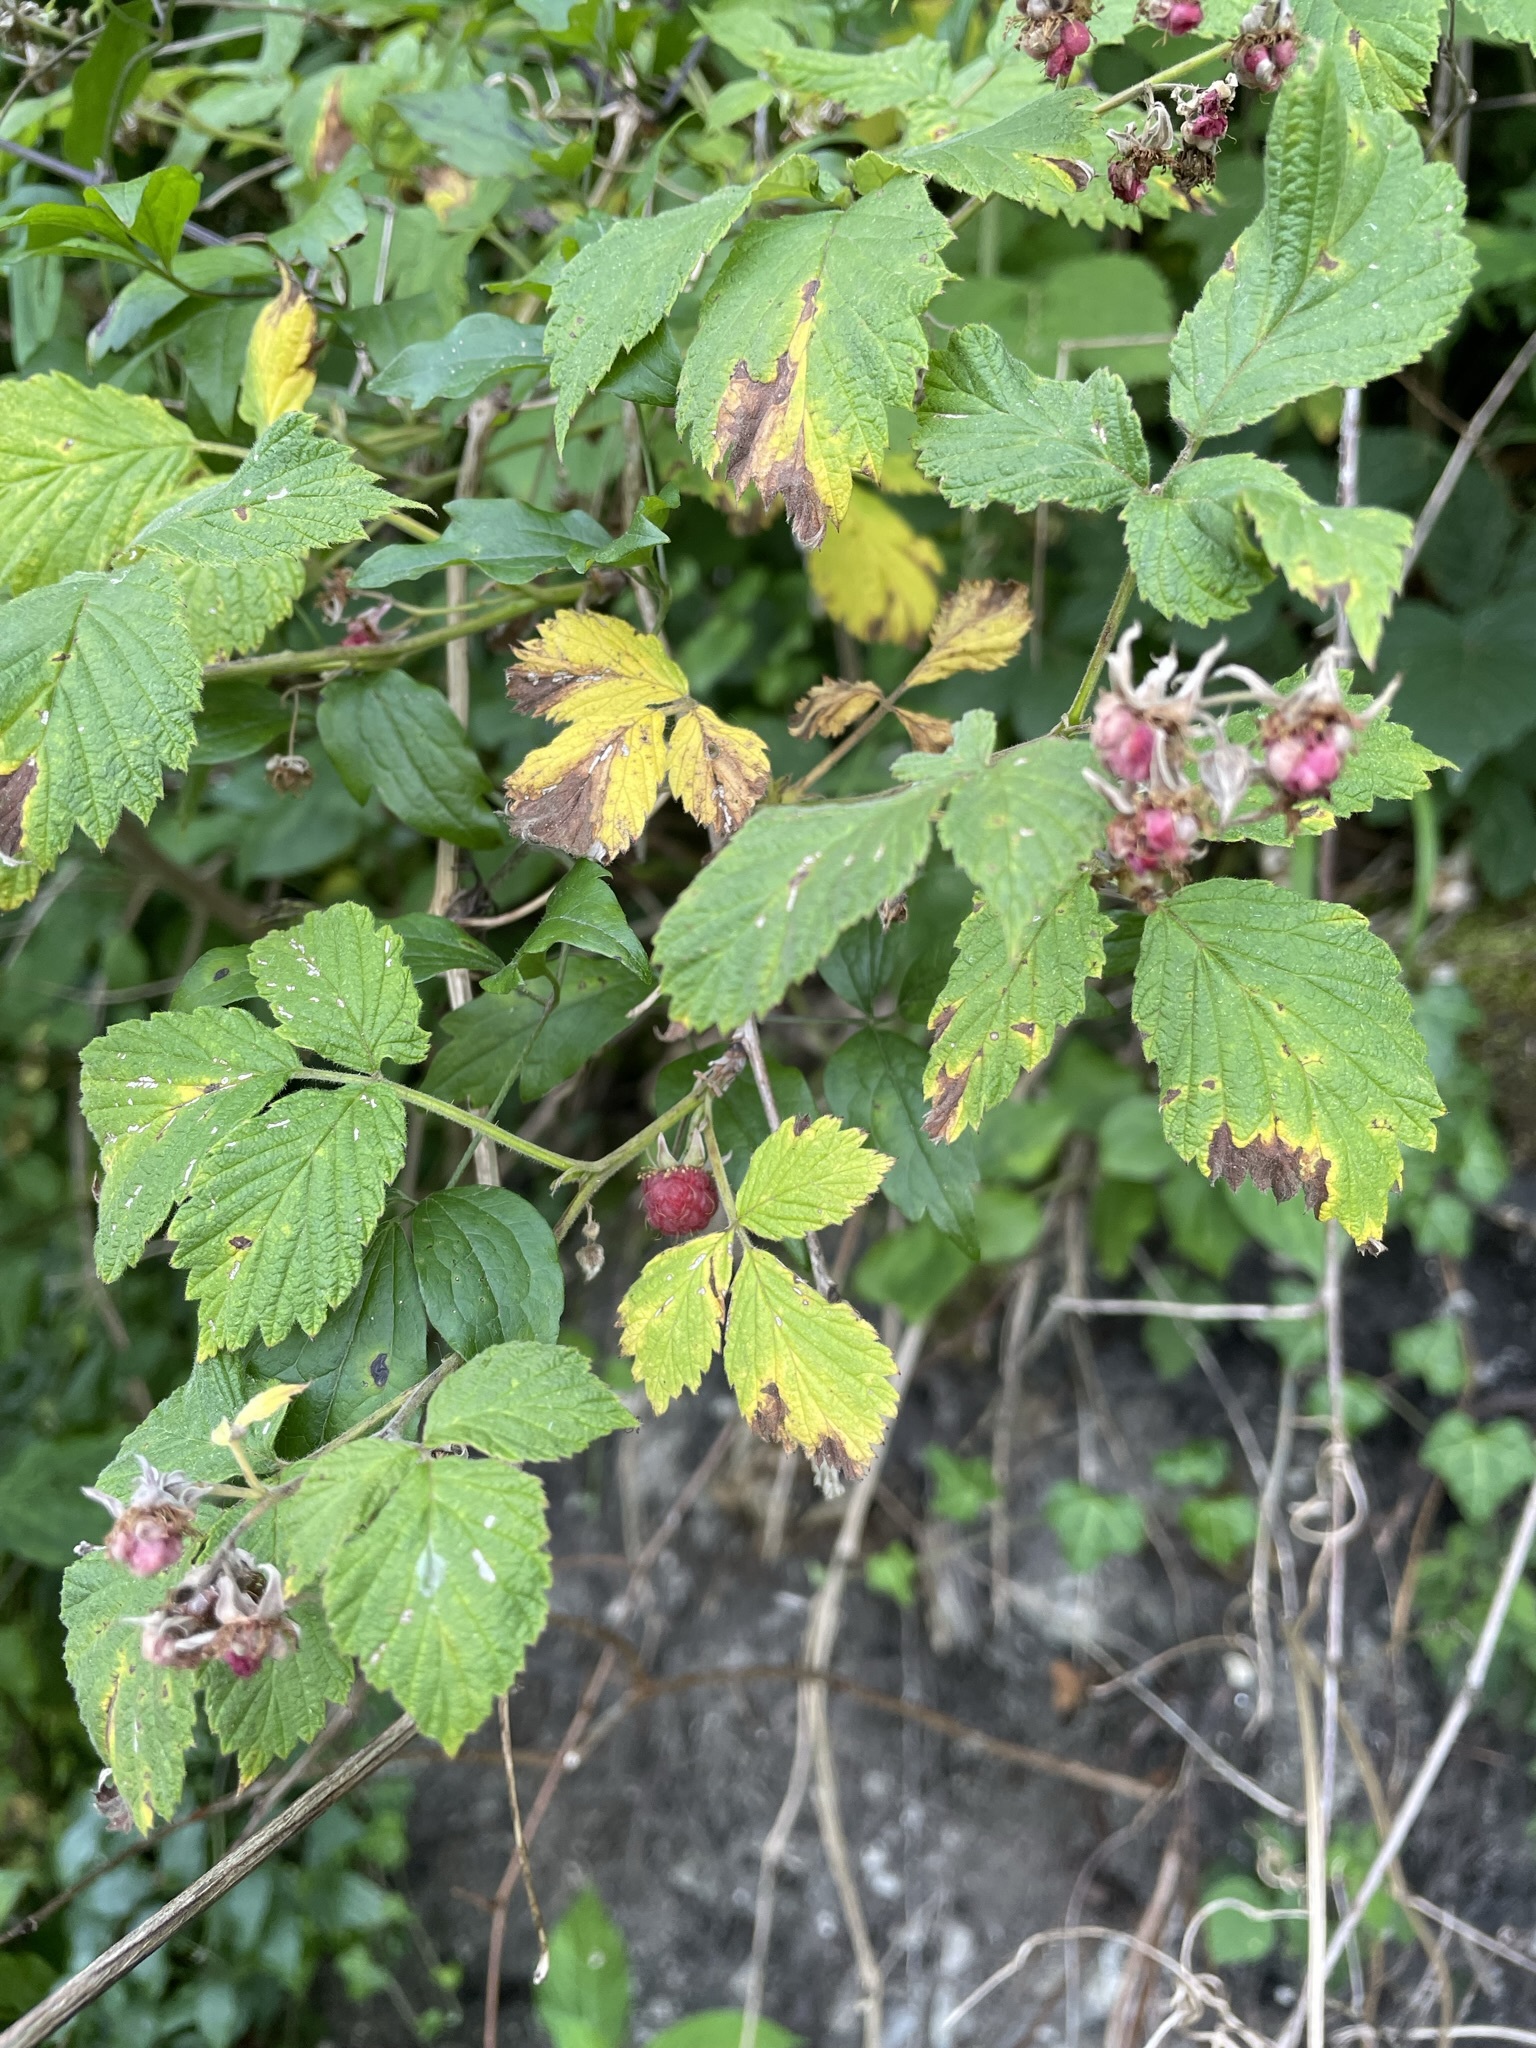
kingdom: Plantae
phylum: Tracheophyta
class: Magnoliopsida
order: Rosales
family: Rosaceae
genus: Rubus
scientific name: Rubus idaeus
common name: Raspberry
